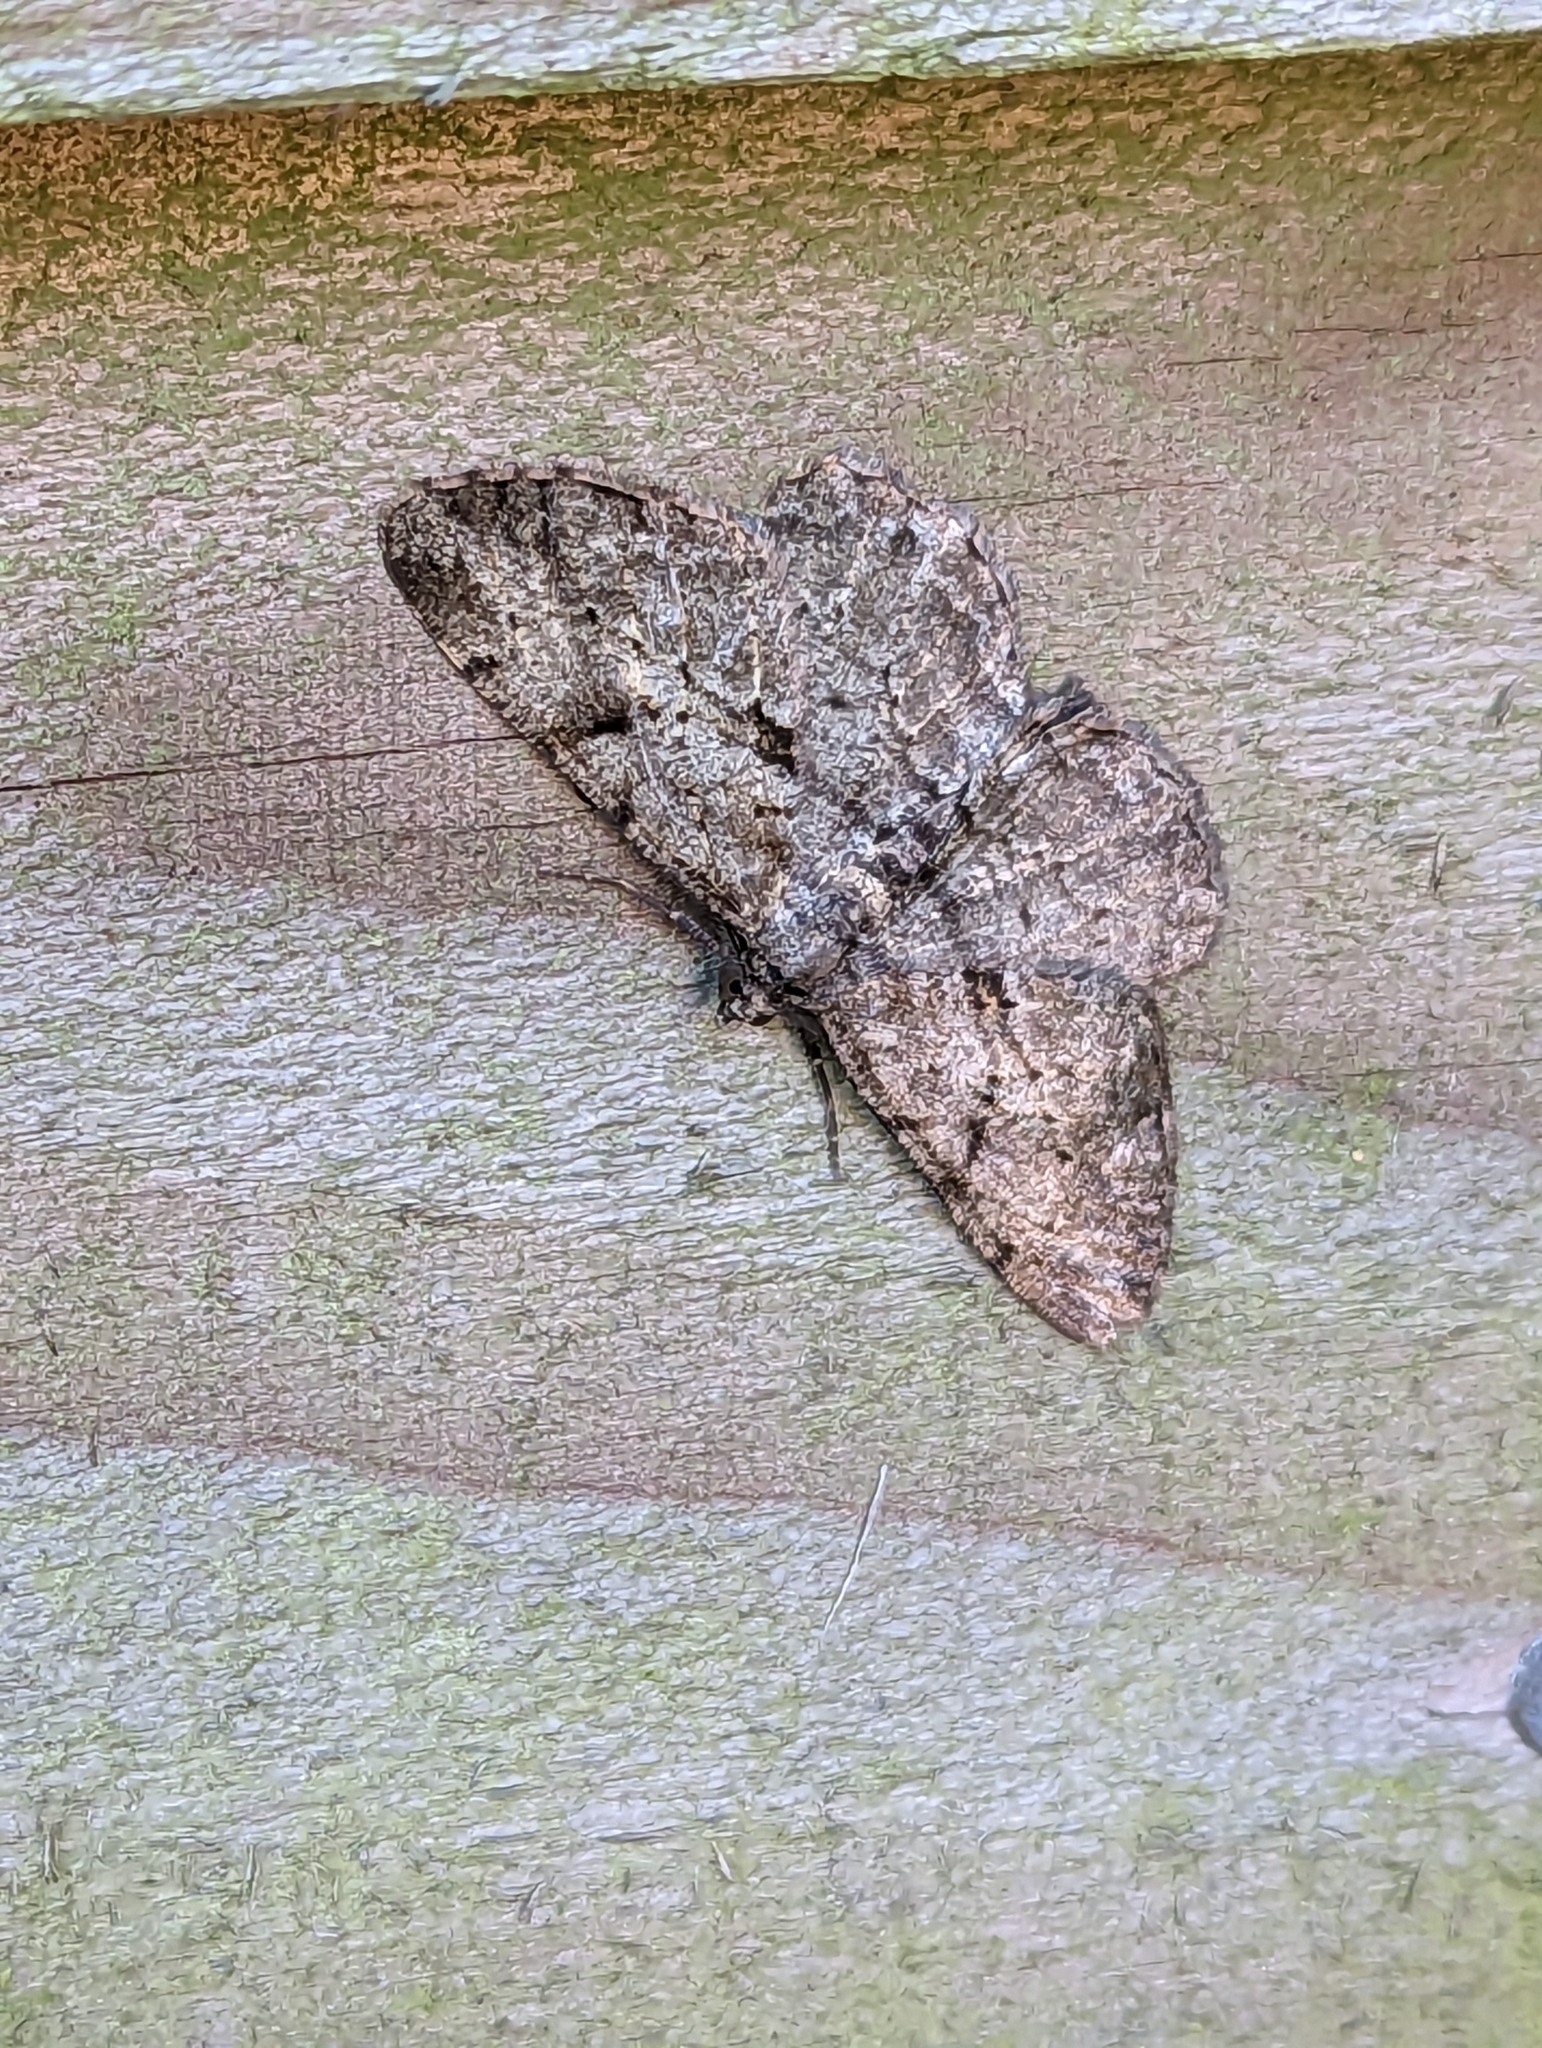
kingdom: Animalia
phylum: Arthropoda
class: Insecta
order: Lepidoptera
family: Geometridae
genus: Peribatodes
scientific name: Peribatodes rhomboidaria
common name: Willow beauty
